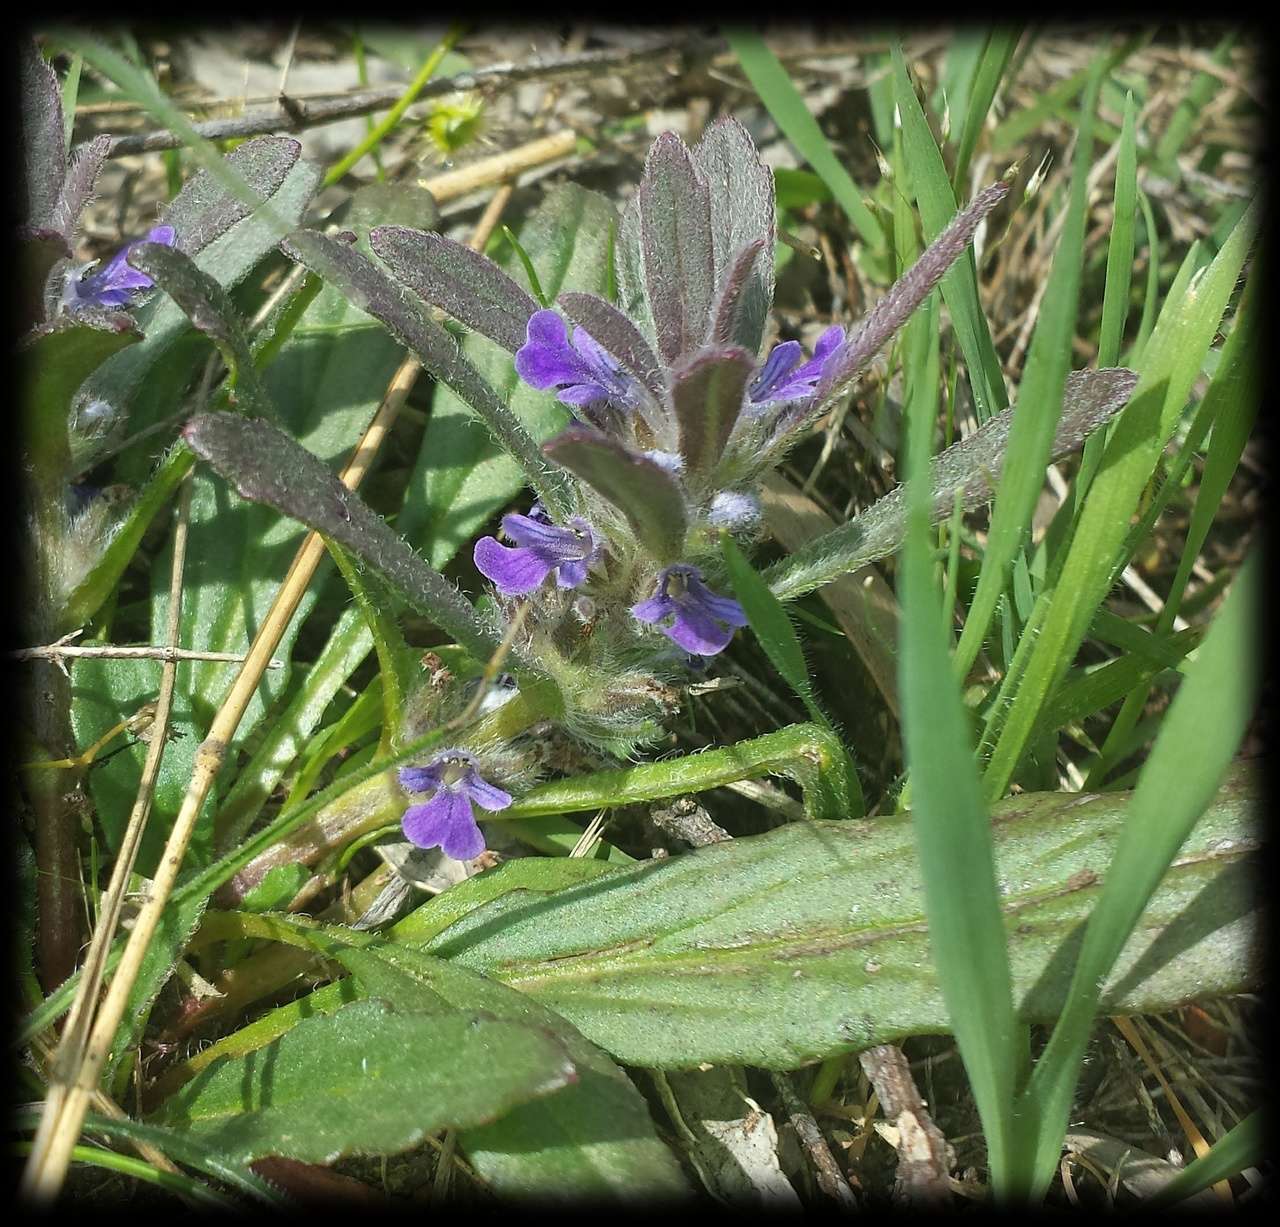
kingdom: Plantae
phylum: Tracheophyta
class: Magnoliopsida
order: Lamiales
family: Lamiaceae
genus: Ajuga
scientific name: Ajuga australis
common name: Australian bugle
